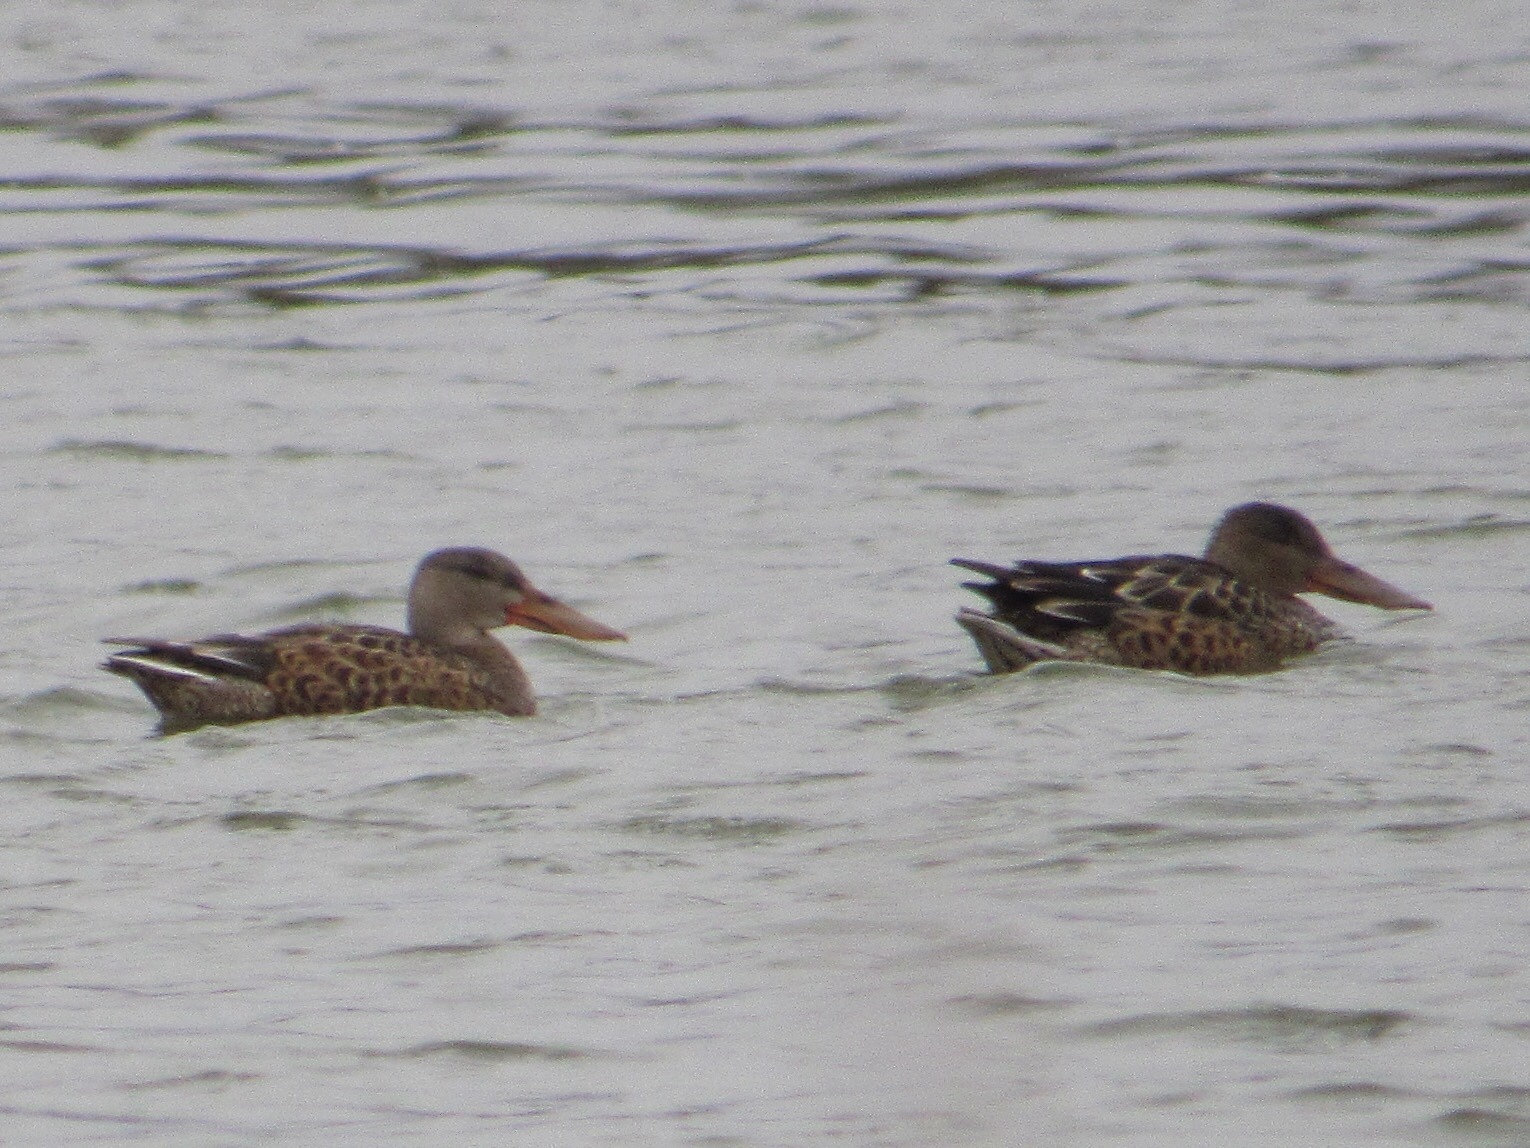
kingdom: Animalia
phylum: Chordata
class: Aves
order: Anseriformes
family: Anatidae
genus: Spatula
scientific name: Spatula clypeata
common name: Northern shoveler
